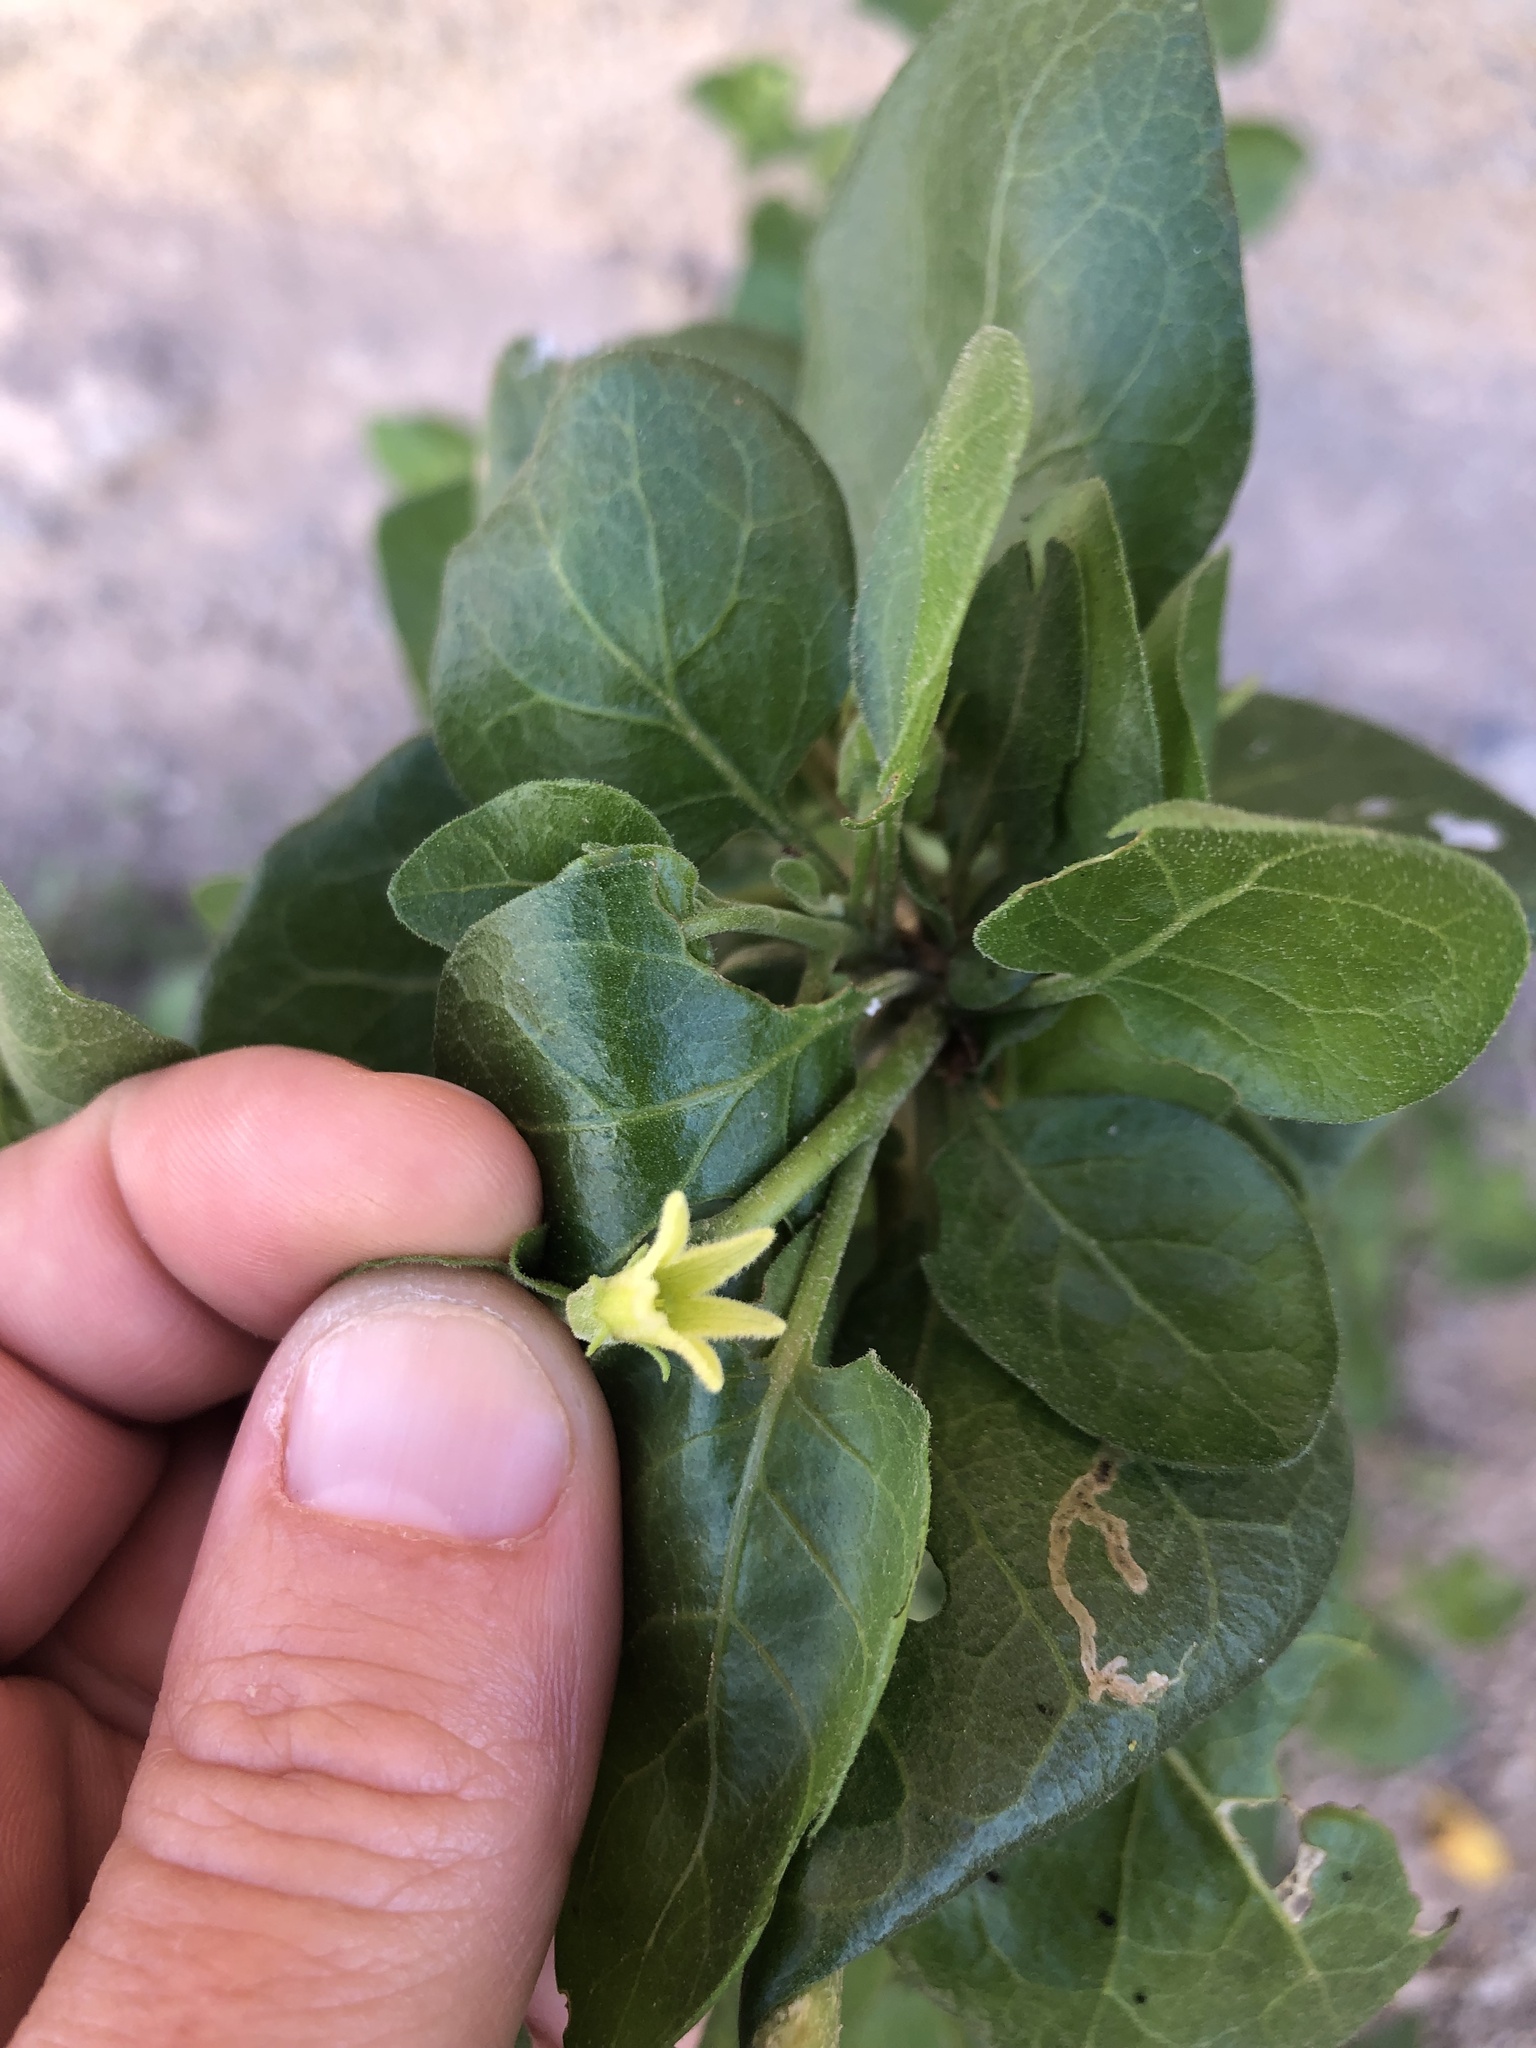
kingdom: Plantae
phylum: Tracheophyta
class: Magnoliopsida
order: Solanales
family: Solanaceae
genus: Withania
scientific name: Withania frutescens
